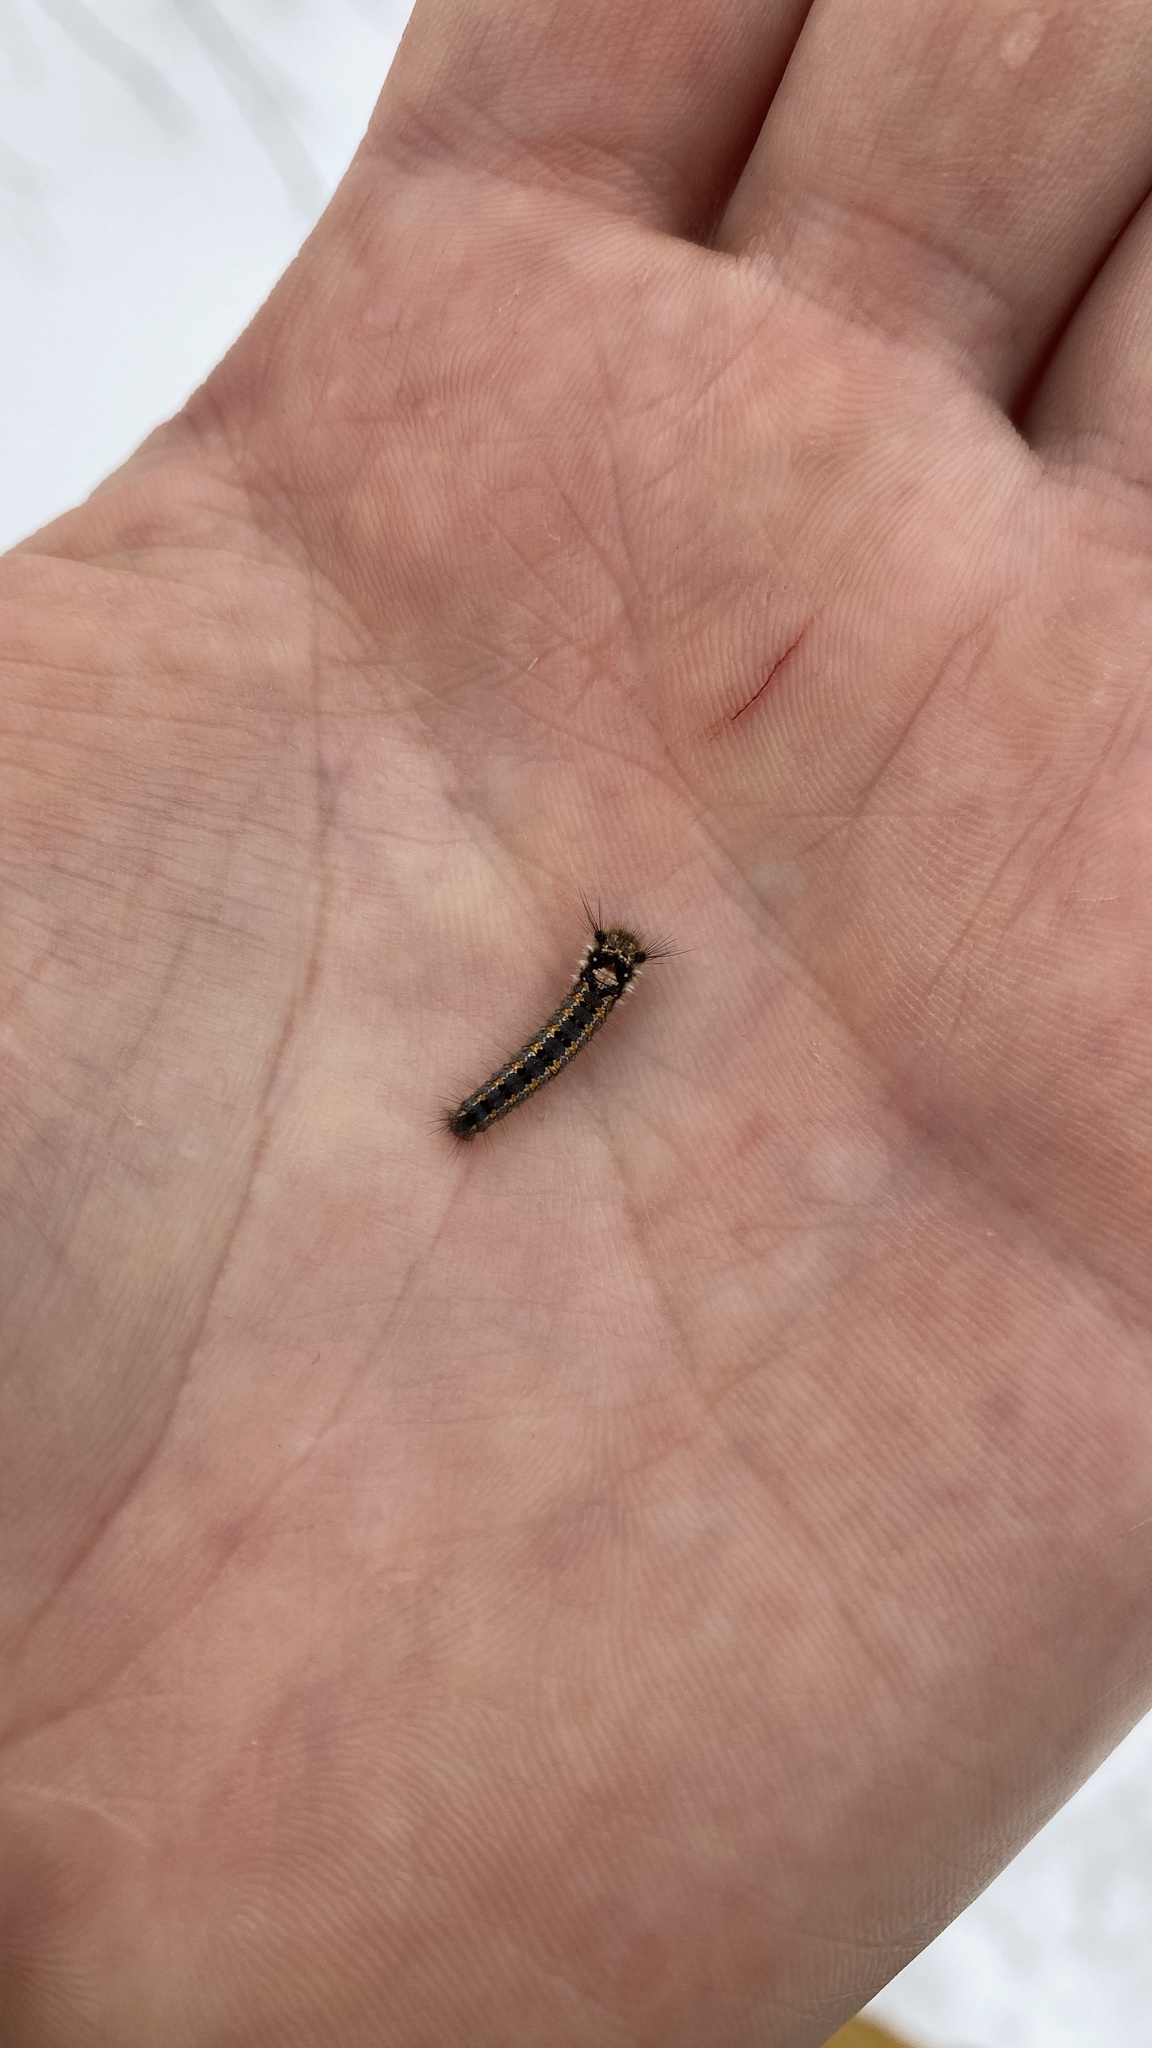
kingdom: Animalia
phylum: Arthropoda
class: Insecta
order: Lepidoptera
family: Lasiocampidae
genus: Euthrix
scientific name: Euthrix potatoria
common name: Drinker
